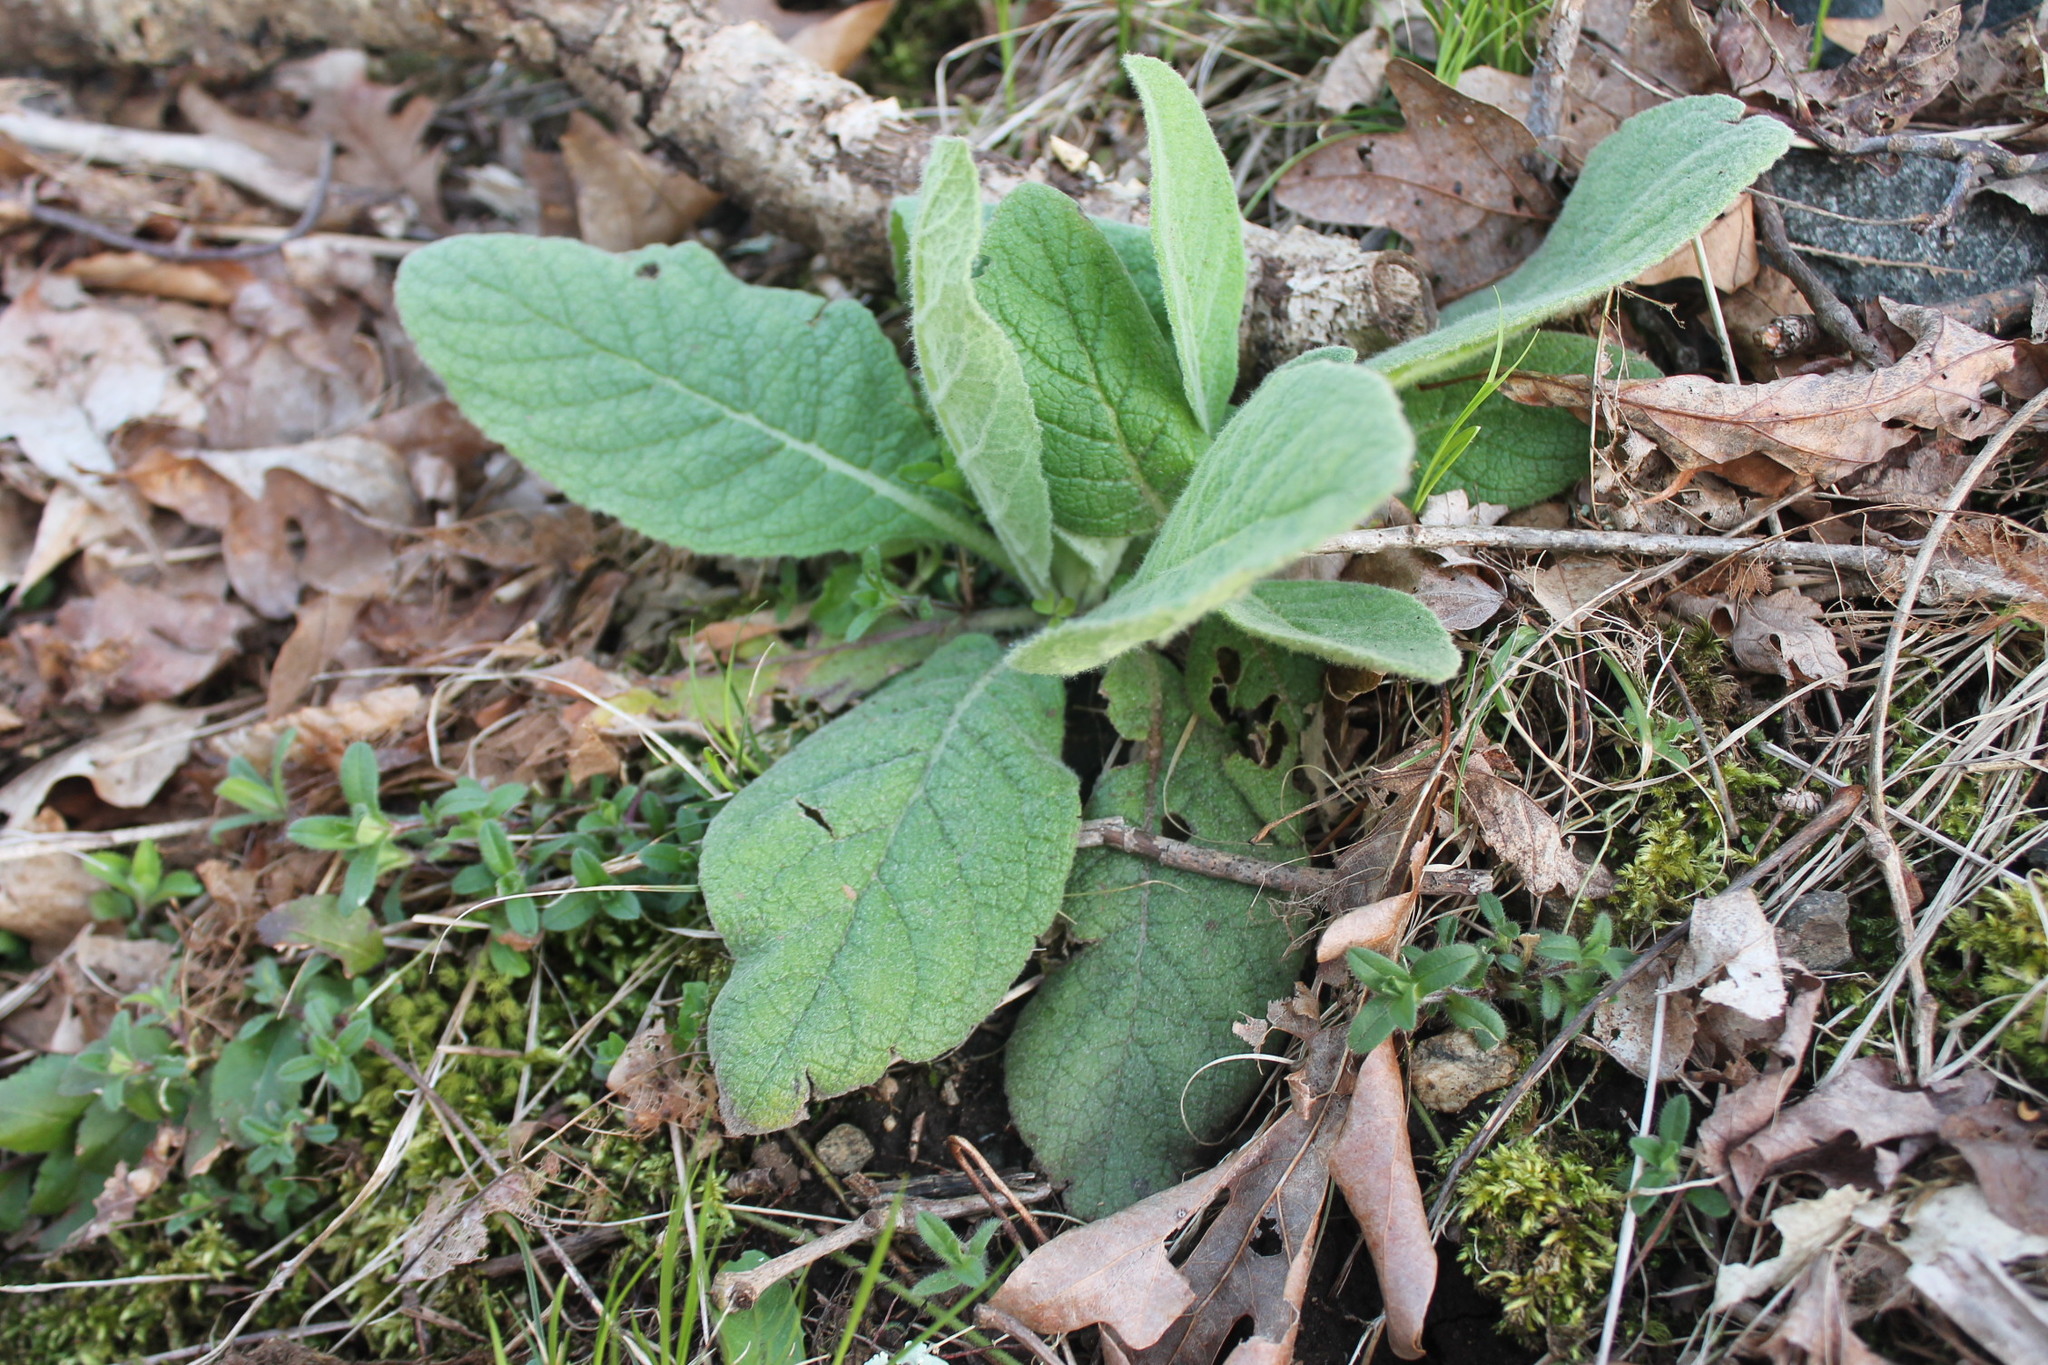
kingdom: Plantae
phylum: Tracheophyta
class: Magnoliopsida
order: Lamiales
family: Scrophulariaceae
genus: Verbascum
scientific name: Verbascum thapsus
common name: Common mullein
